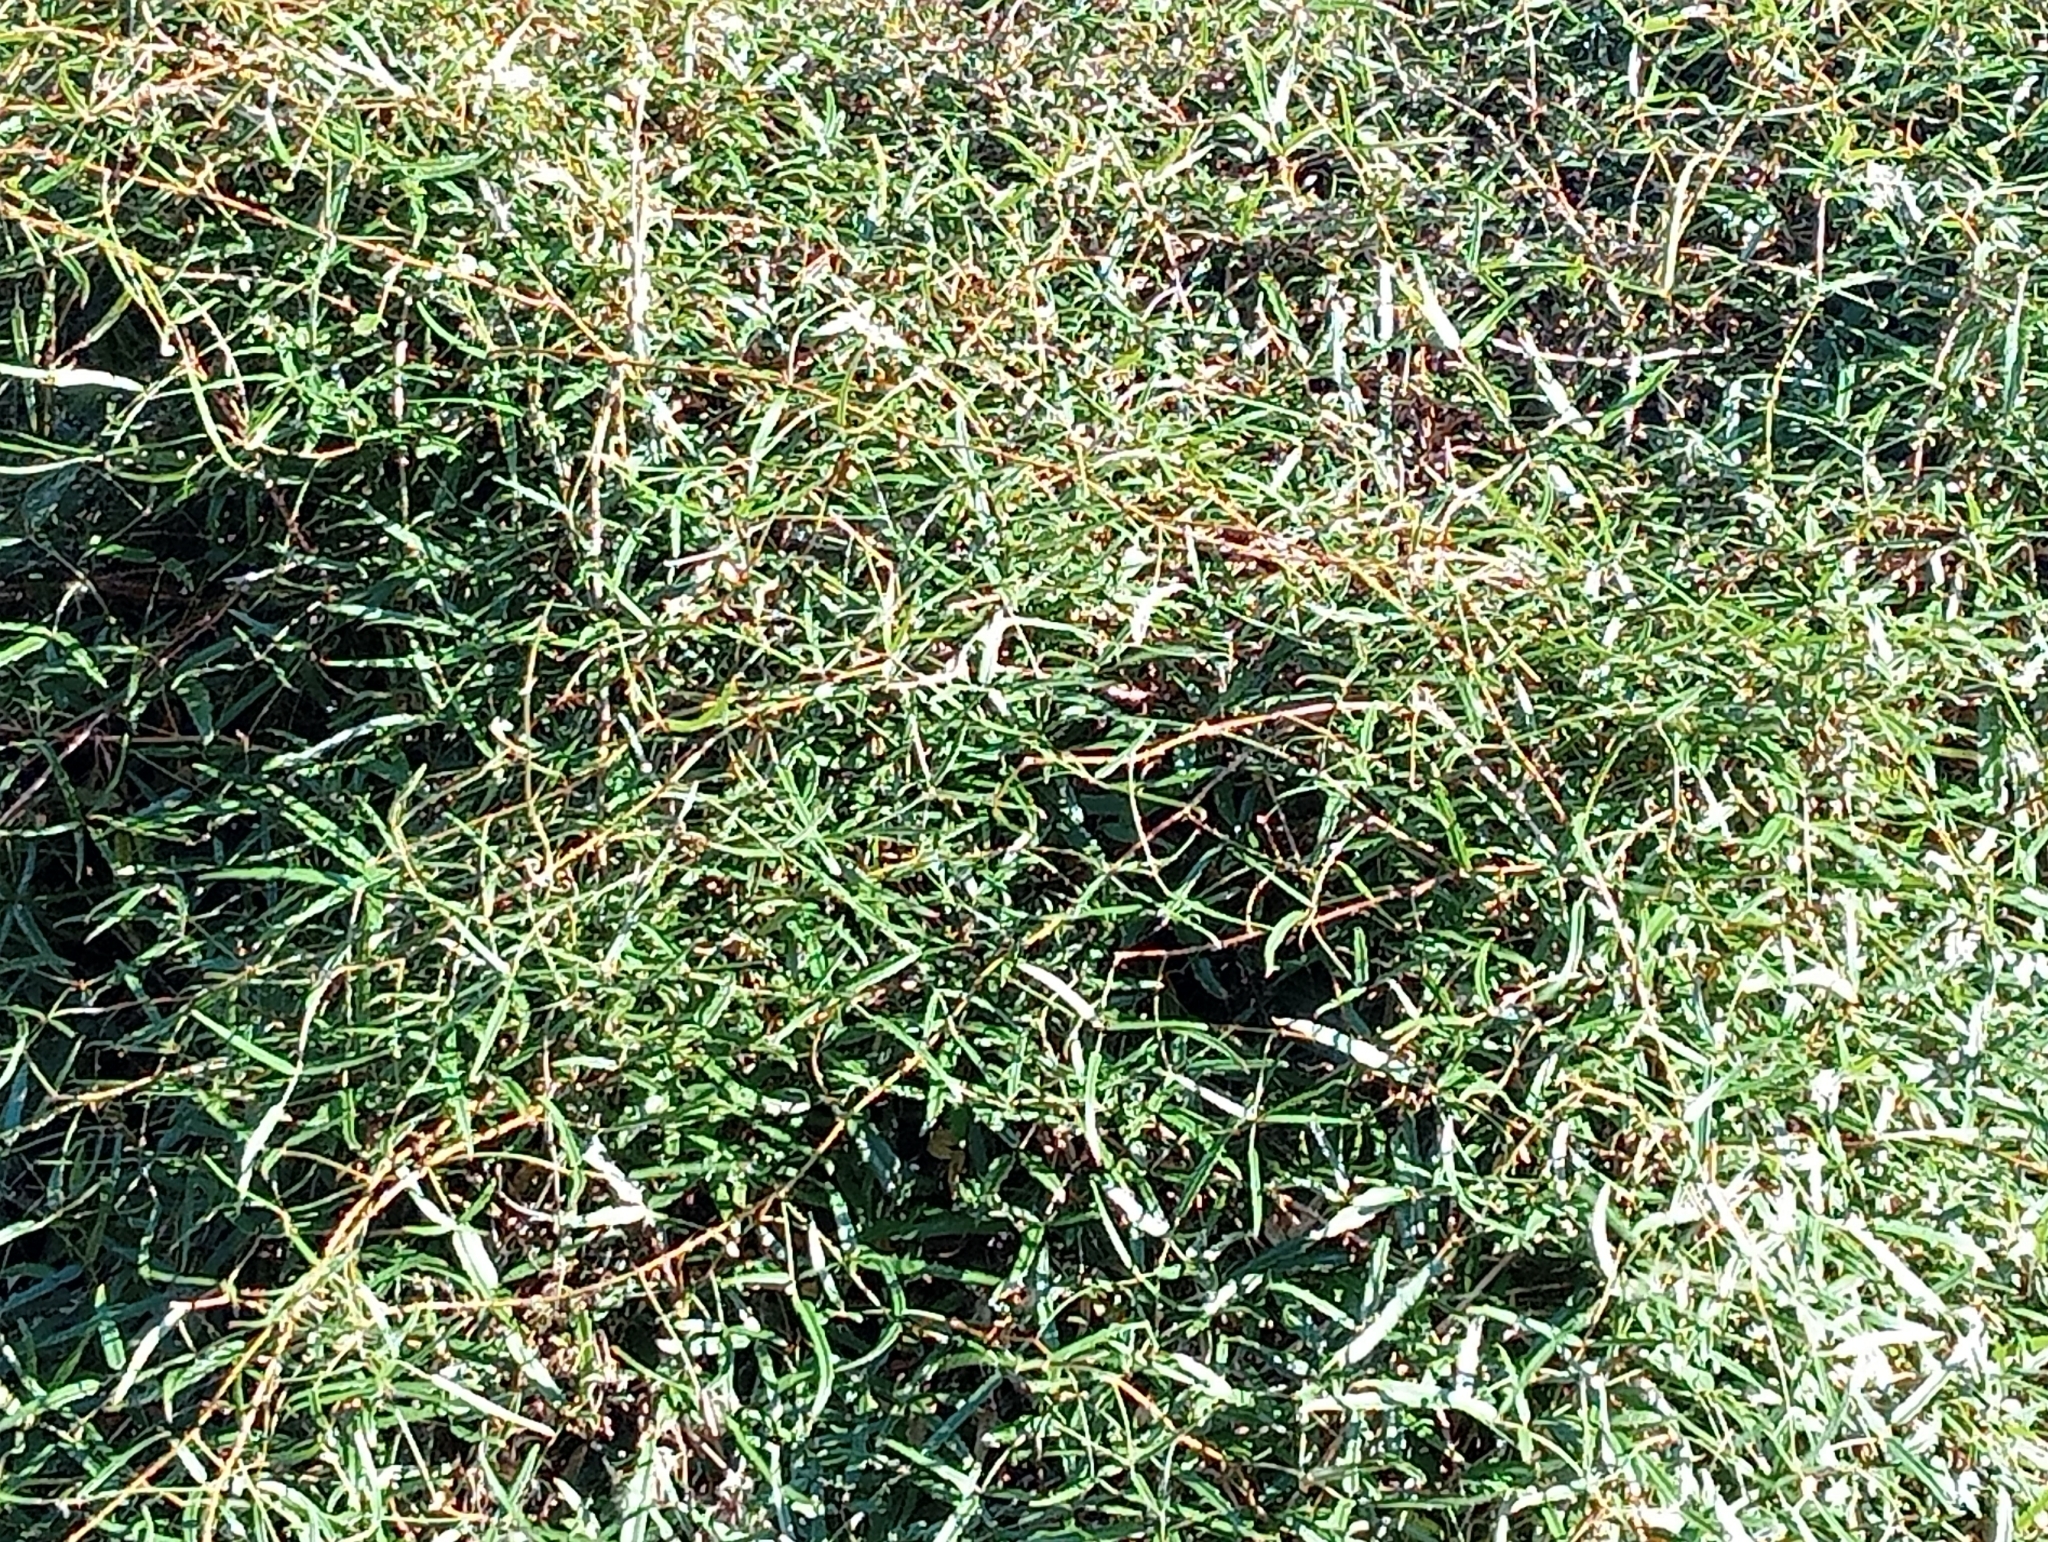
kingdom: Plantae
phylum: Tracheophyta
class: Magnoliopsida
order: Rosales
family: Rosaceae
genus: Rubus
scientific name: Rubus schmidelioides
